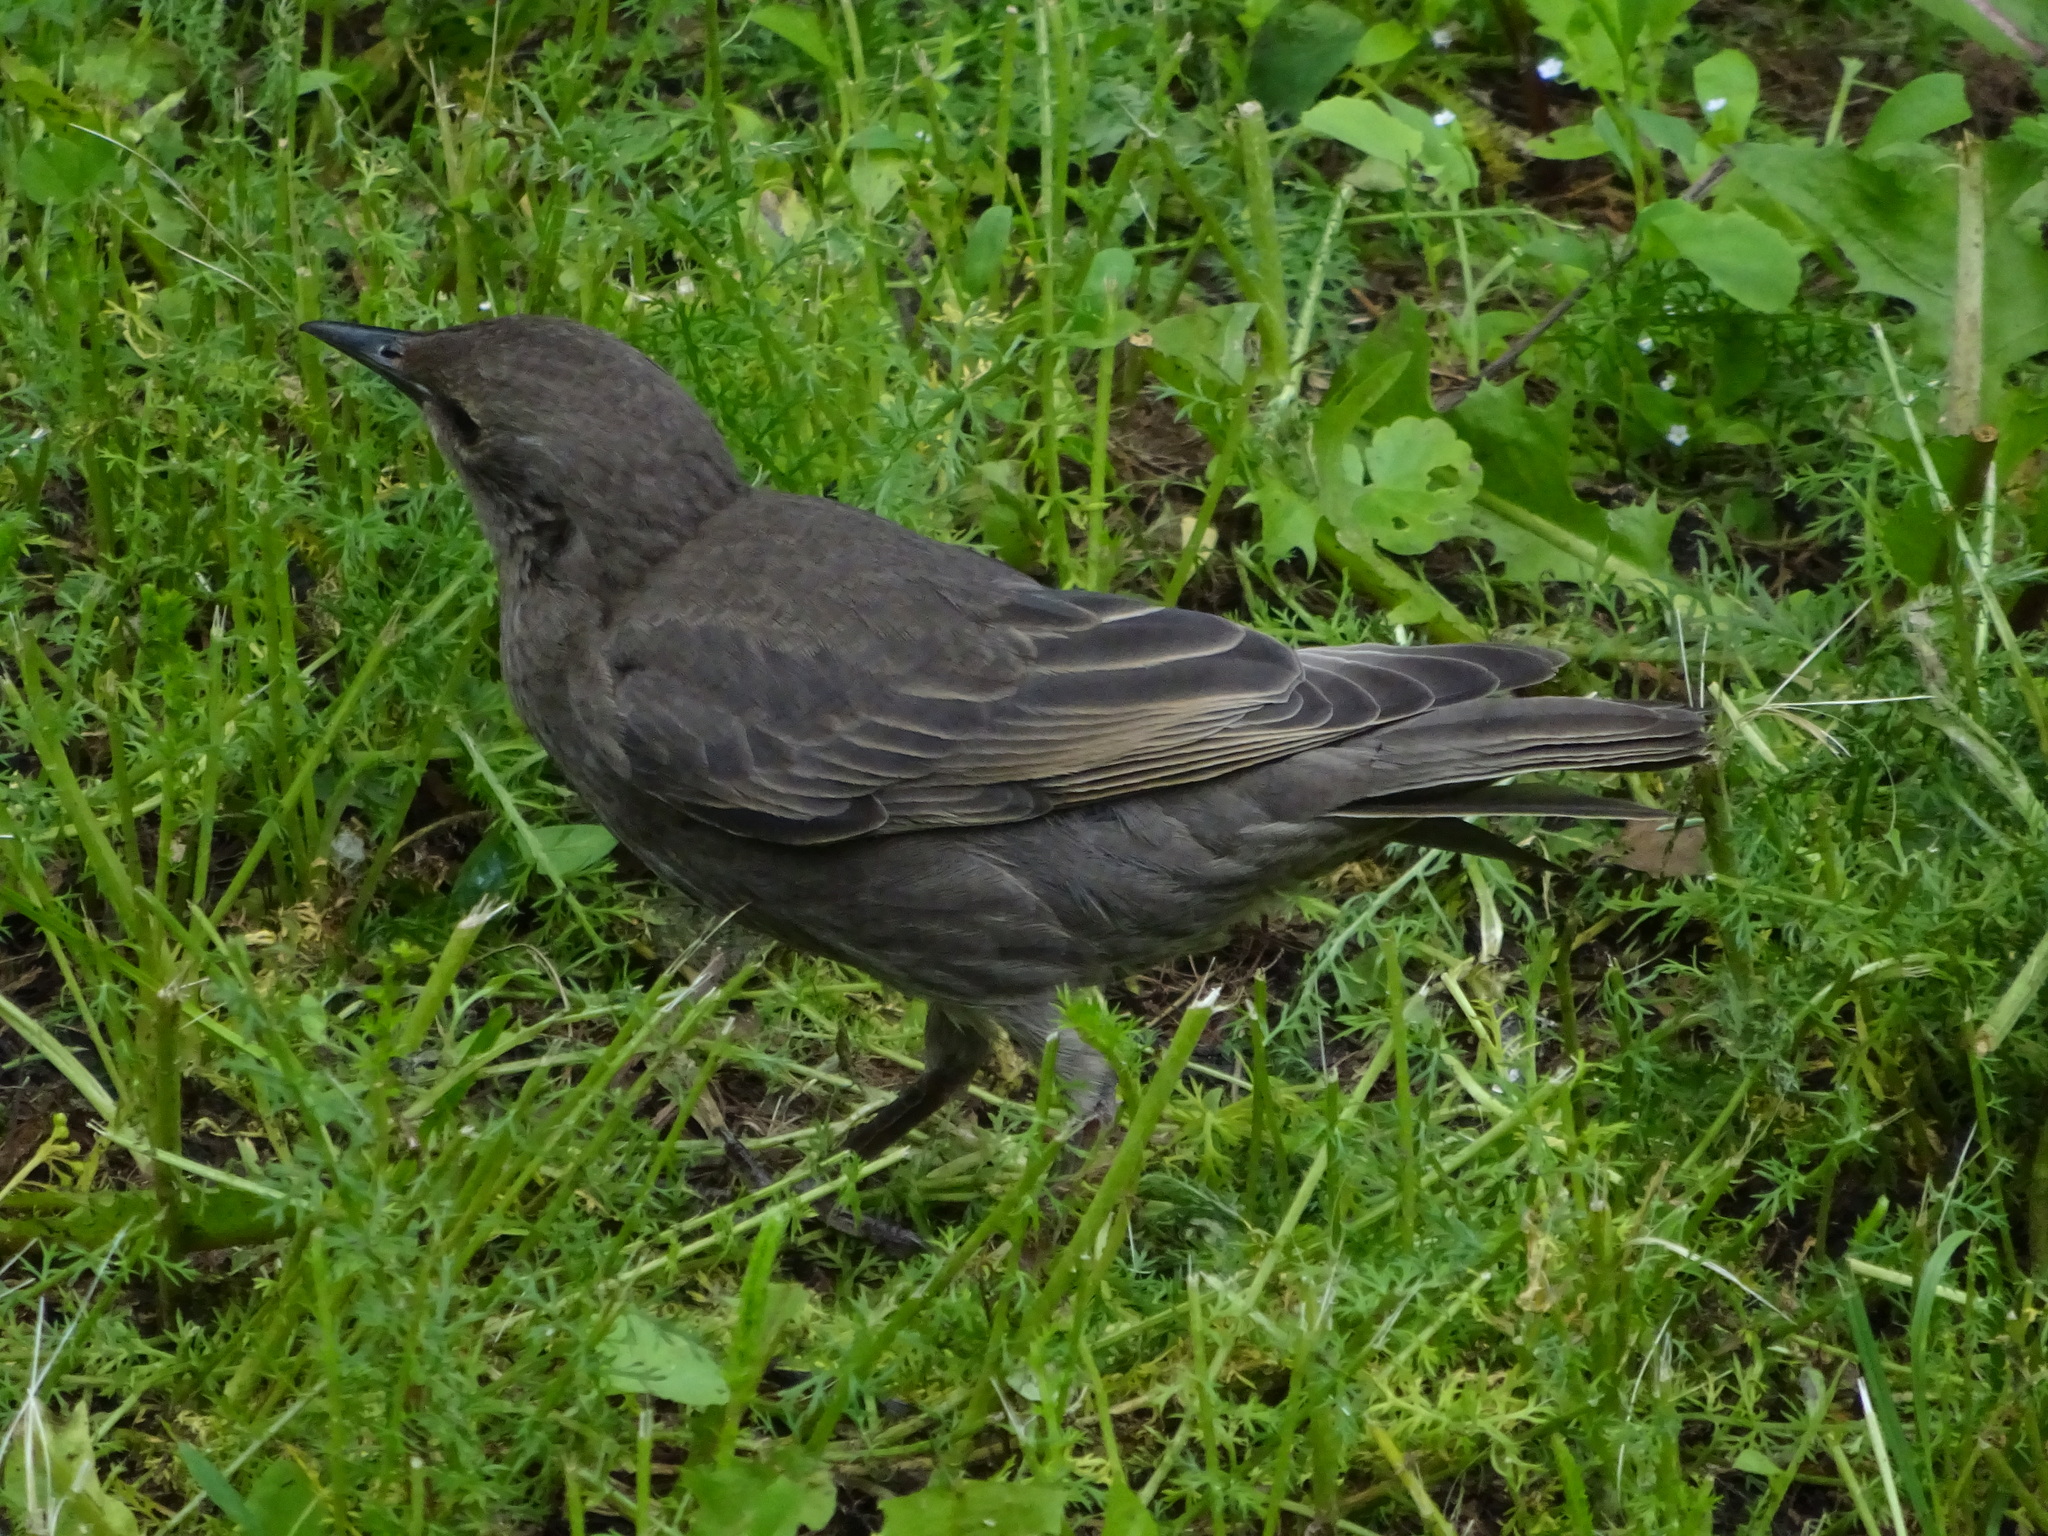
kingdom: Animalia
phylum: Chordata
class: Aves
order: Passeriformes
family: Sturnidae
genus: Sturnus
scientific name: Sturnus vulgaris
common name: Common starling
